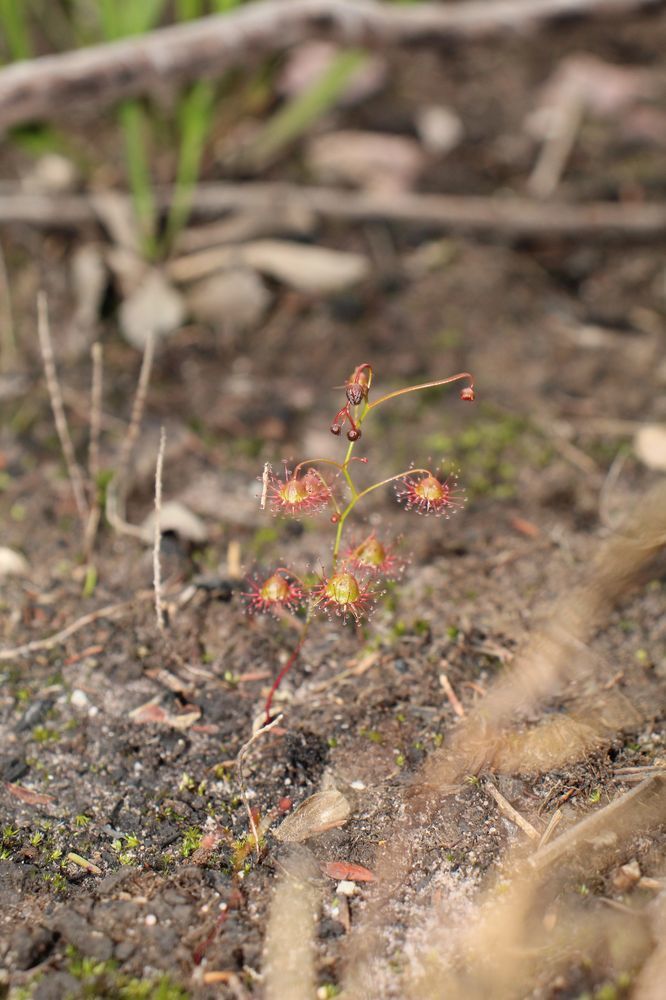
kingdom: Plantae
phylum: Tracheophyta
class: Magnoliopsida
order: Caryophyllales
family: Droseraceae
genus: Drosera
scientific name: Drosera huegelii
